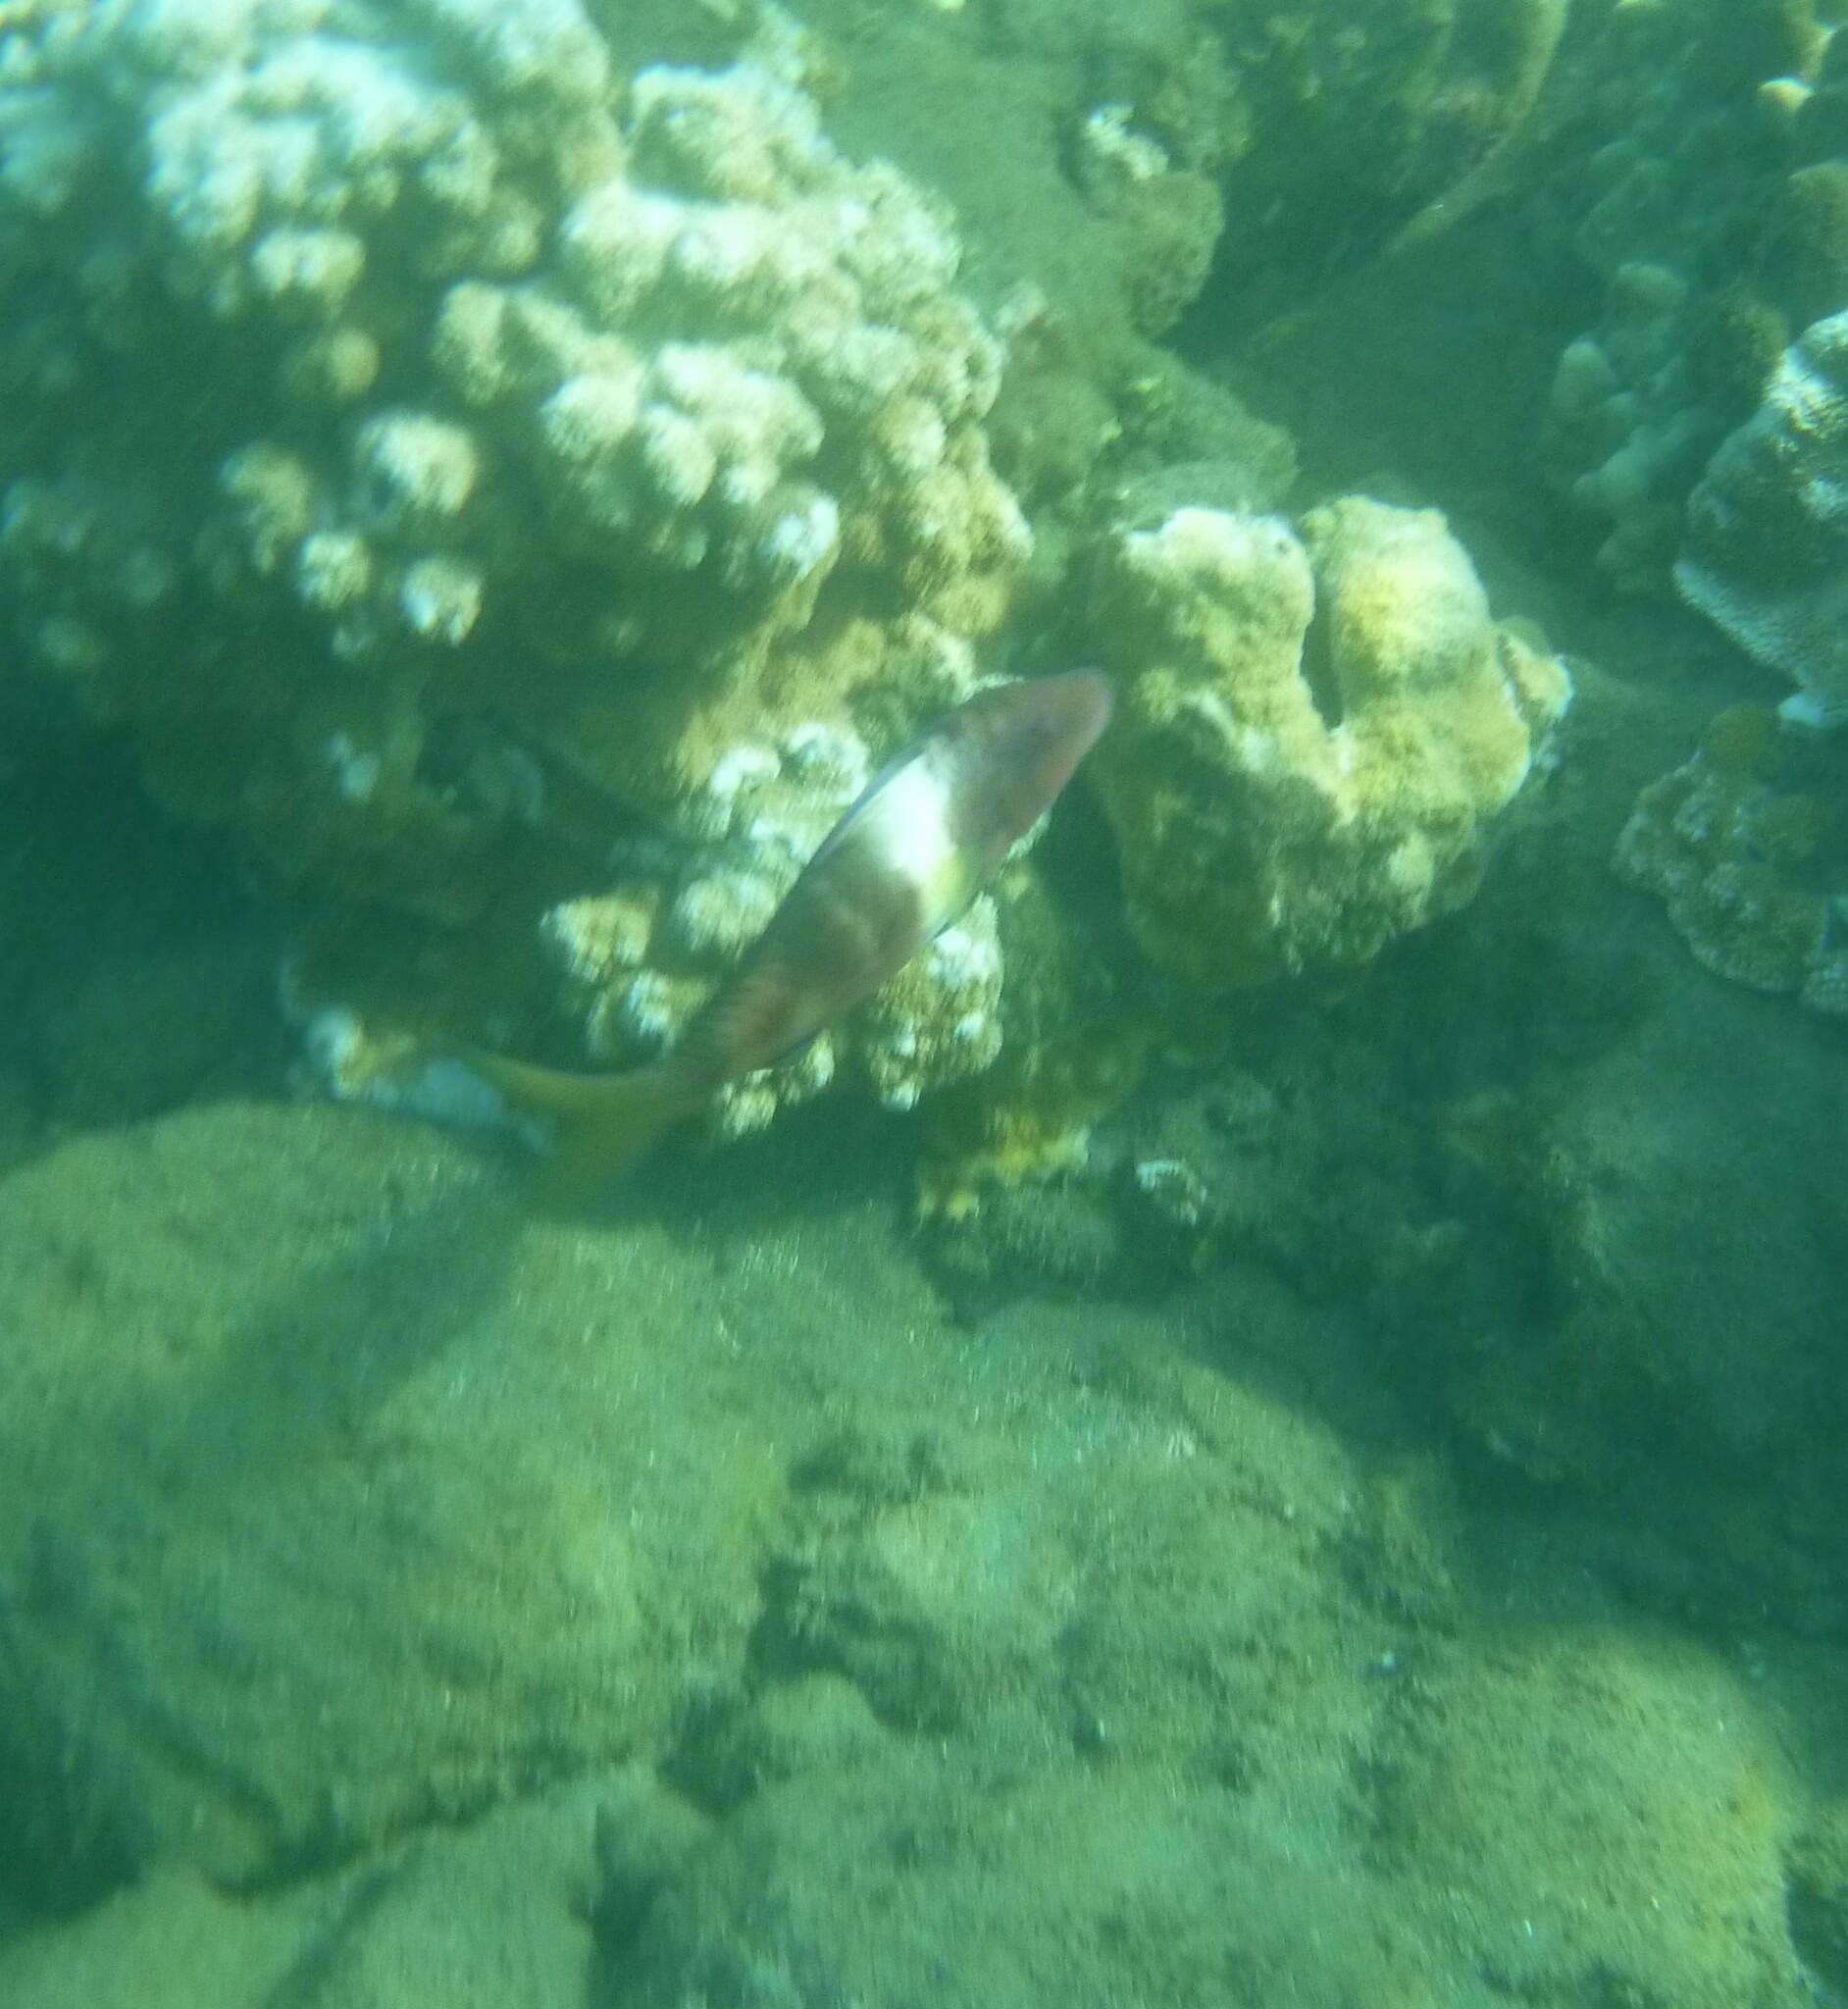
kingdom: Animalia
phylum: Chordata
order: Perciformes
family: Mullidae
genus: Parupeneus
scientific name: Parupeneus multifasciatus
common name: Manybar goatfish
